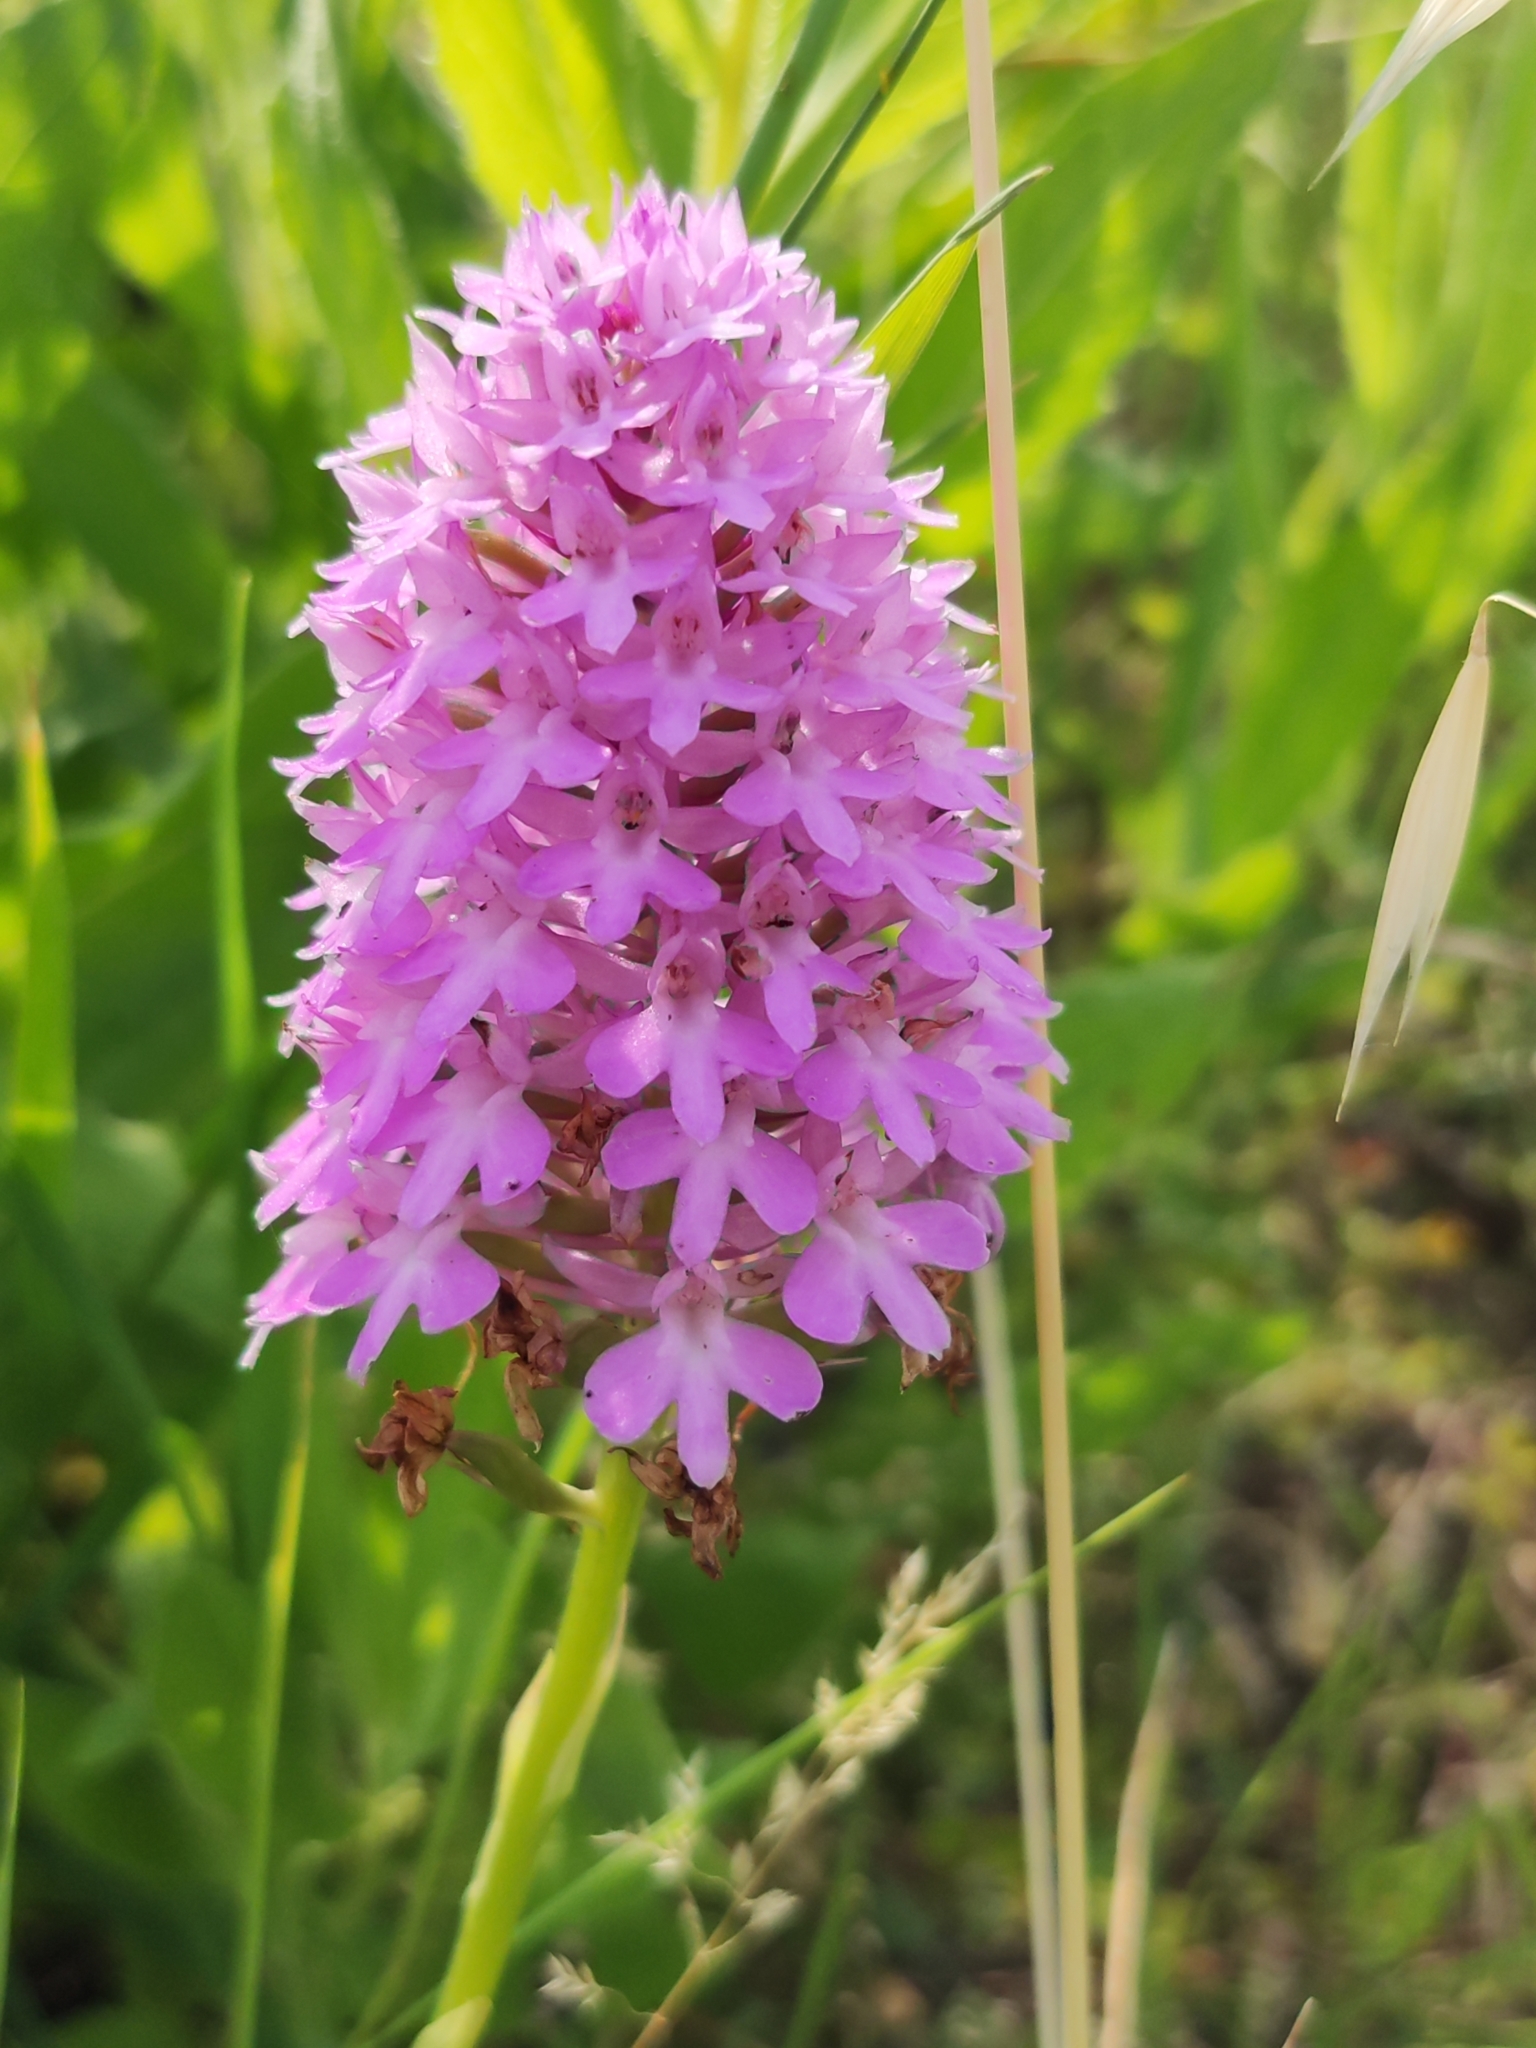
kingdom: Plantae
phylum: Tracheophyta
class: Liliopsida
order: Asparagales
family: Orchidaceae
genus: Anacamptis
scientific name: Anacamptis pyramidalis
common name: Pyramidal orchid
